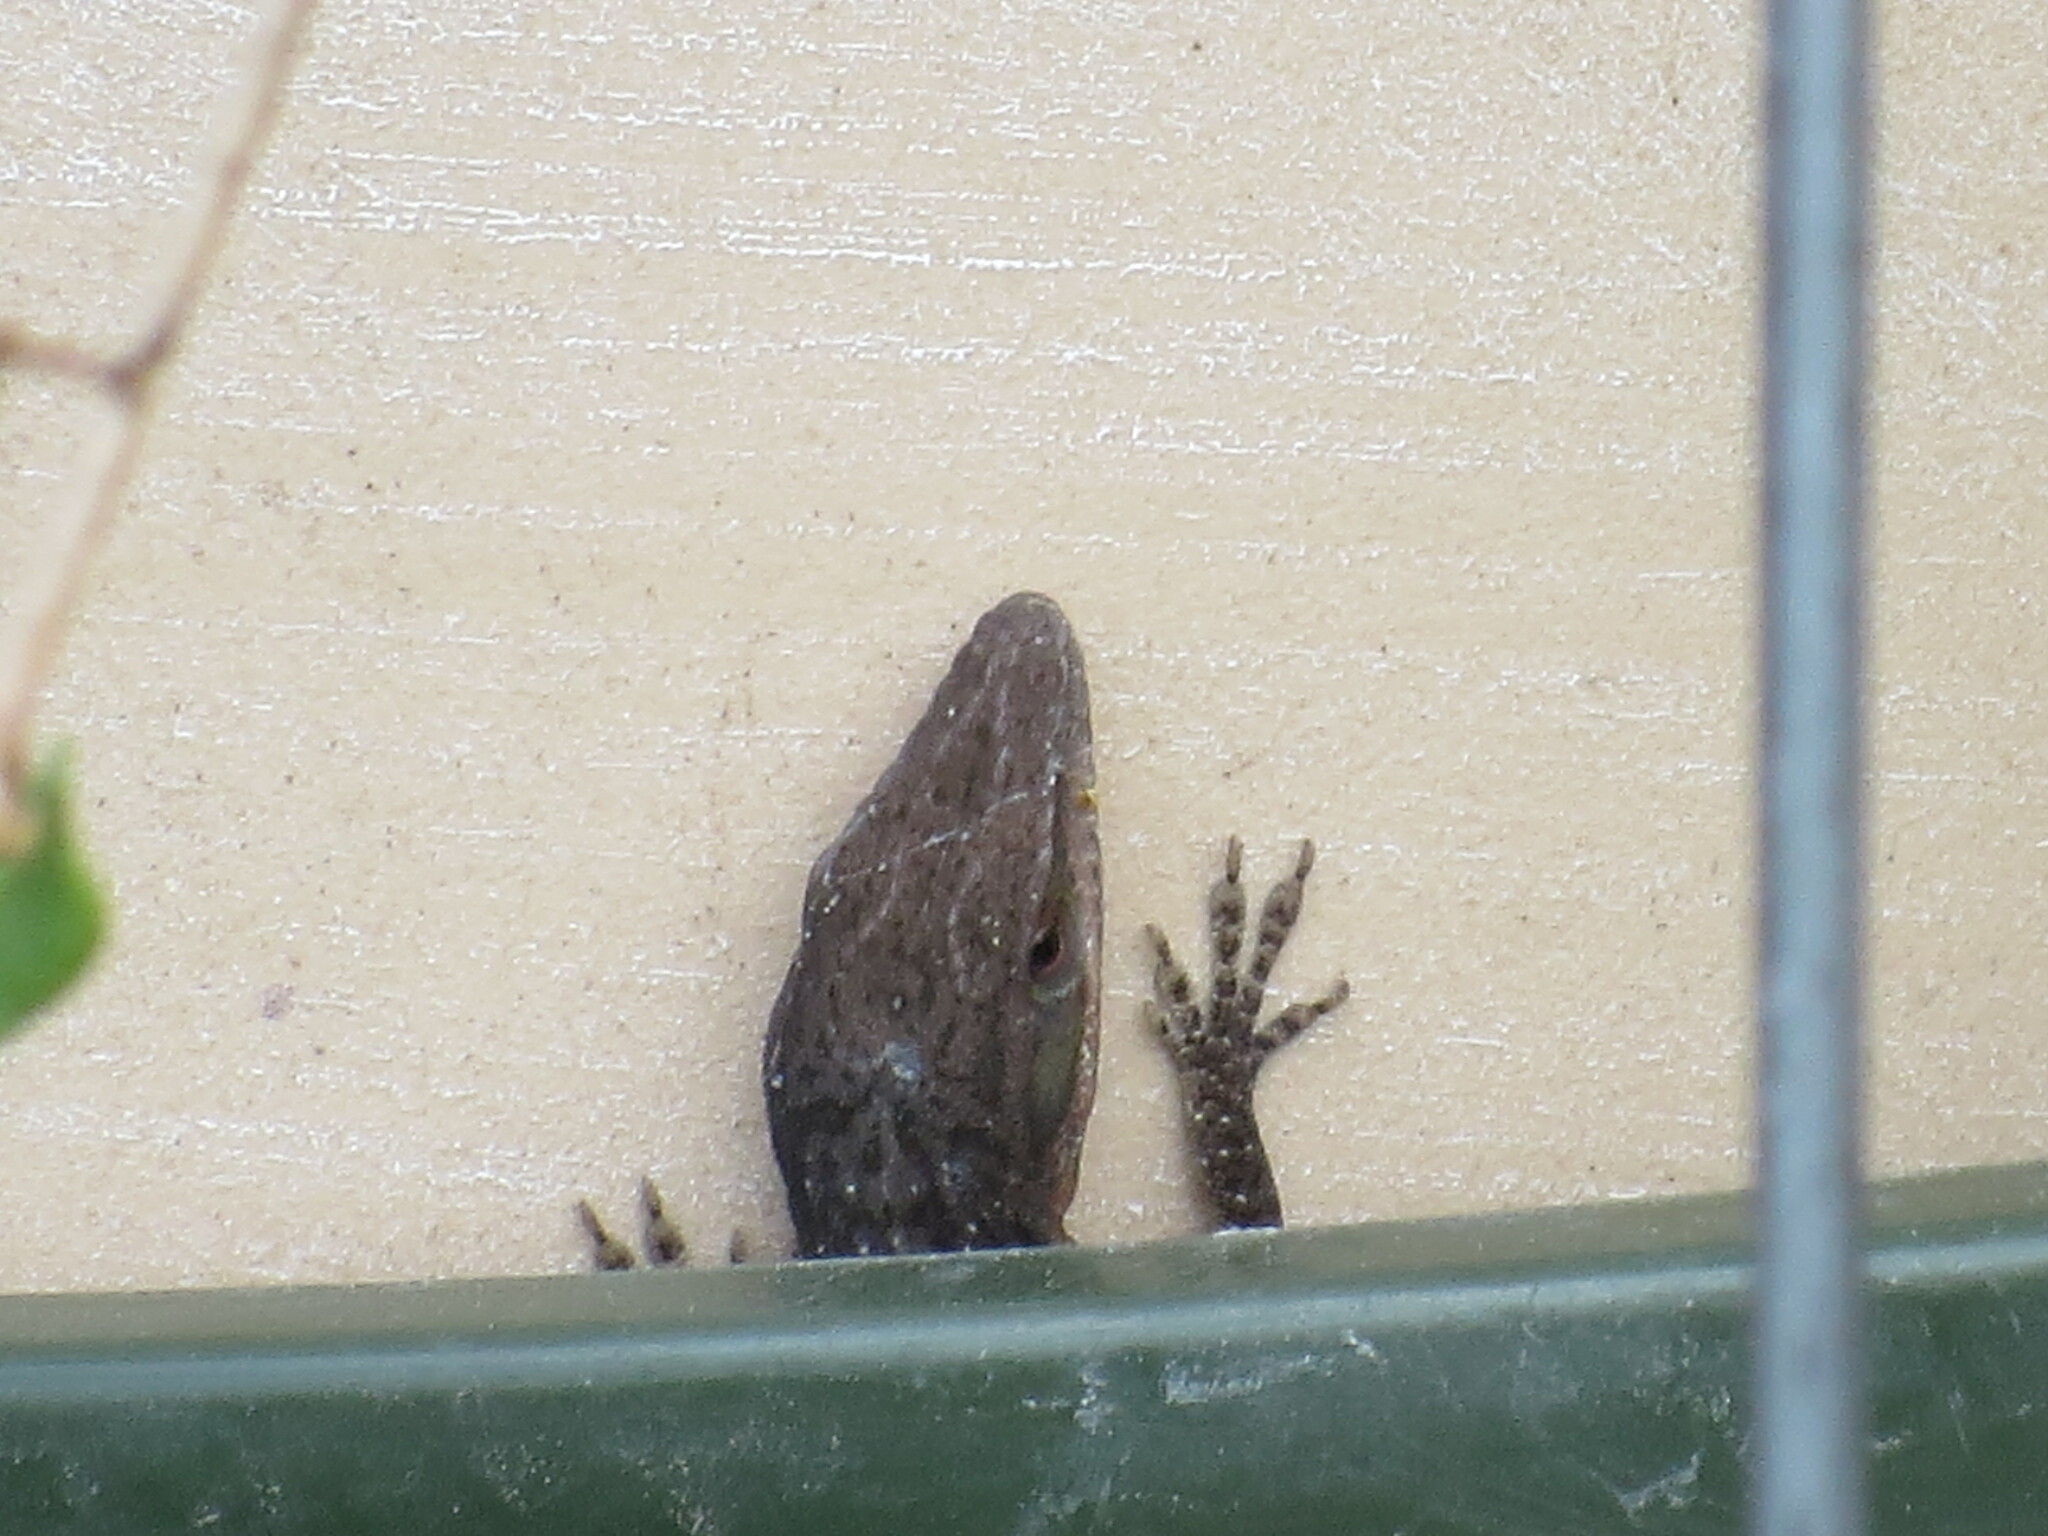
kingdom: Animalia
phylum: Chordata
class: Squamata
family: Dactyloidae
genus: Anolis
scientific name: Anolis carolinensis
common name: Green anole
